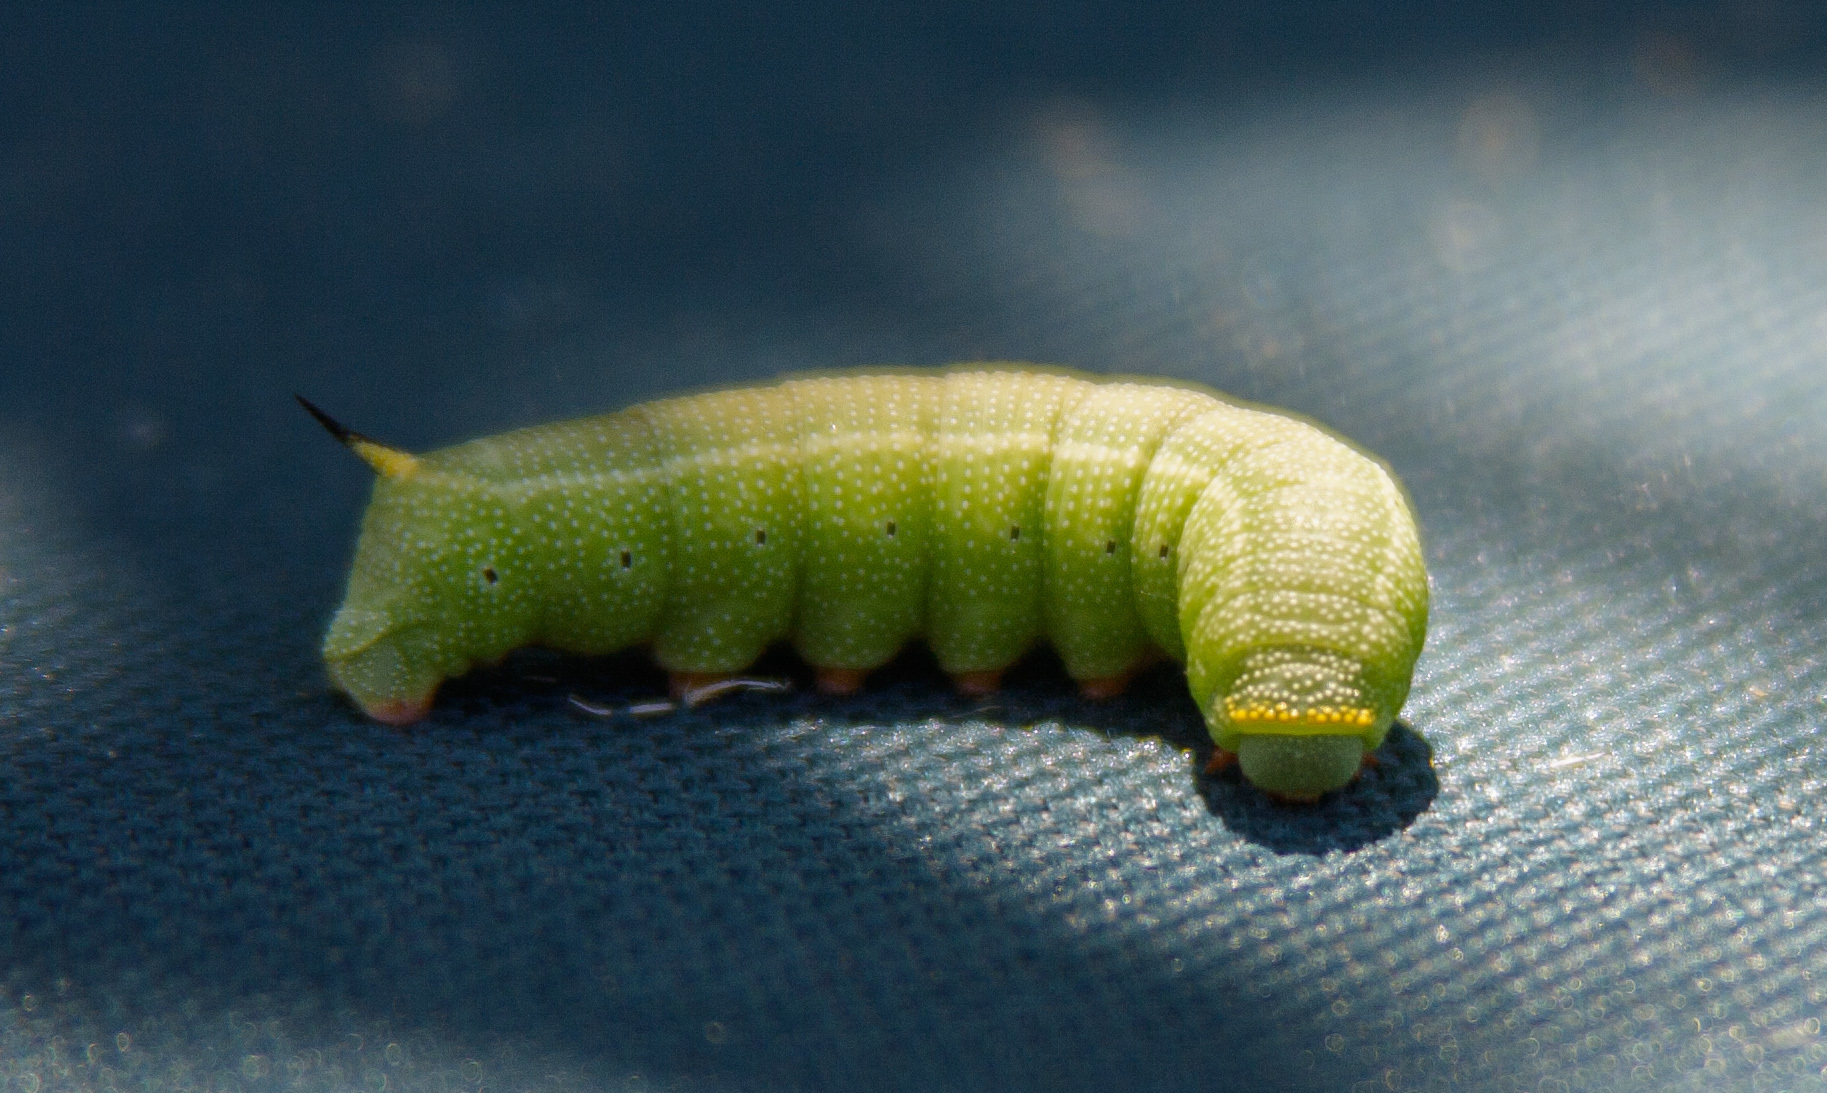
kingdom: Animalia
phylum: Arthropoda
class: Insecta
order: Lepidoptera
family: Sphingidae
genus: Hemaris
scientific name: Hemaris diffinis
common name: Bumblebee moth
